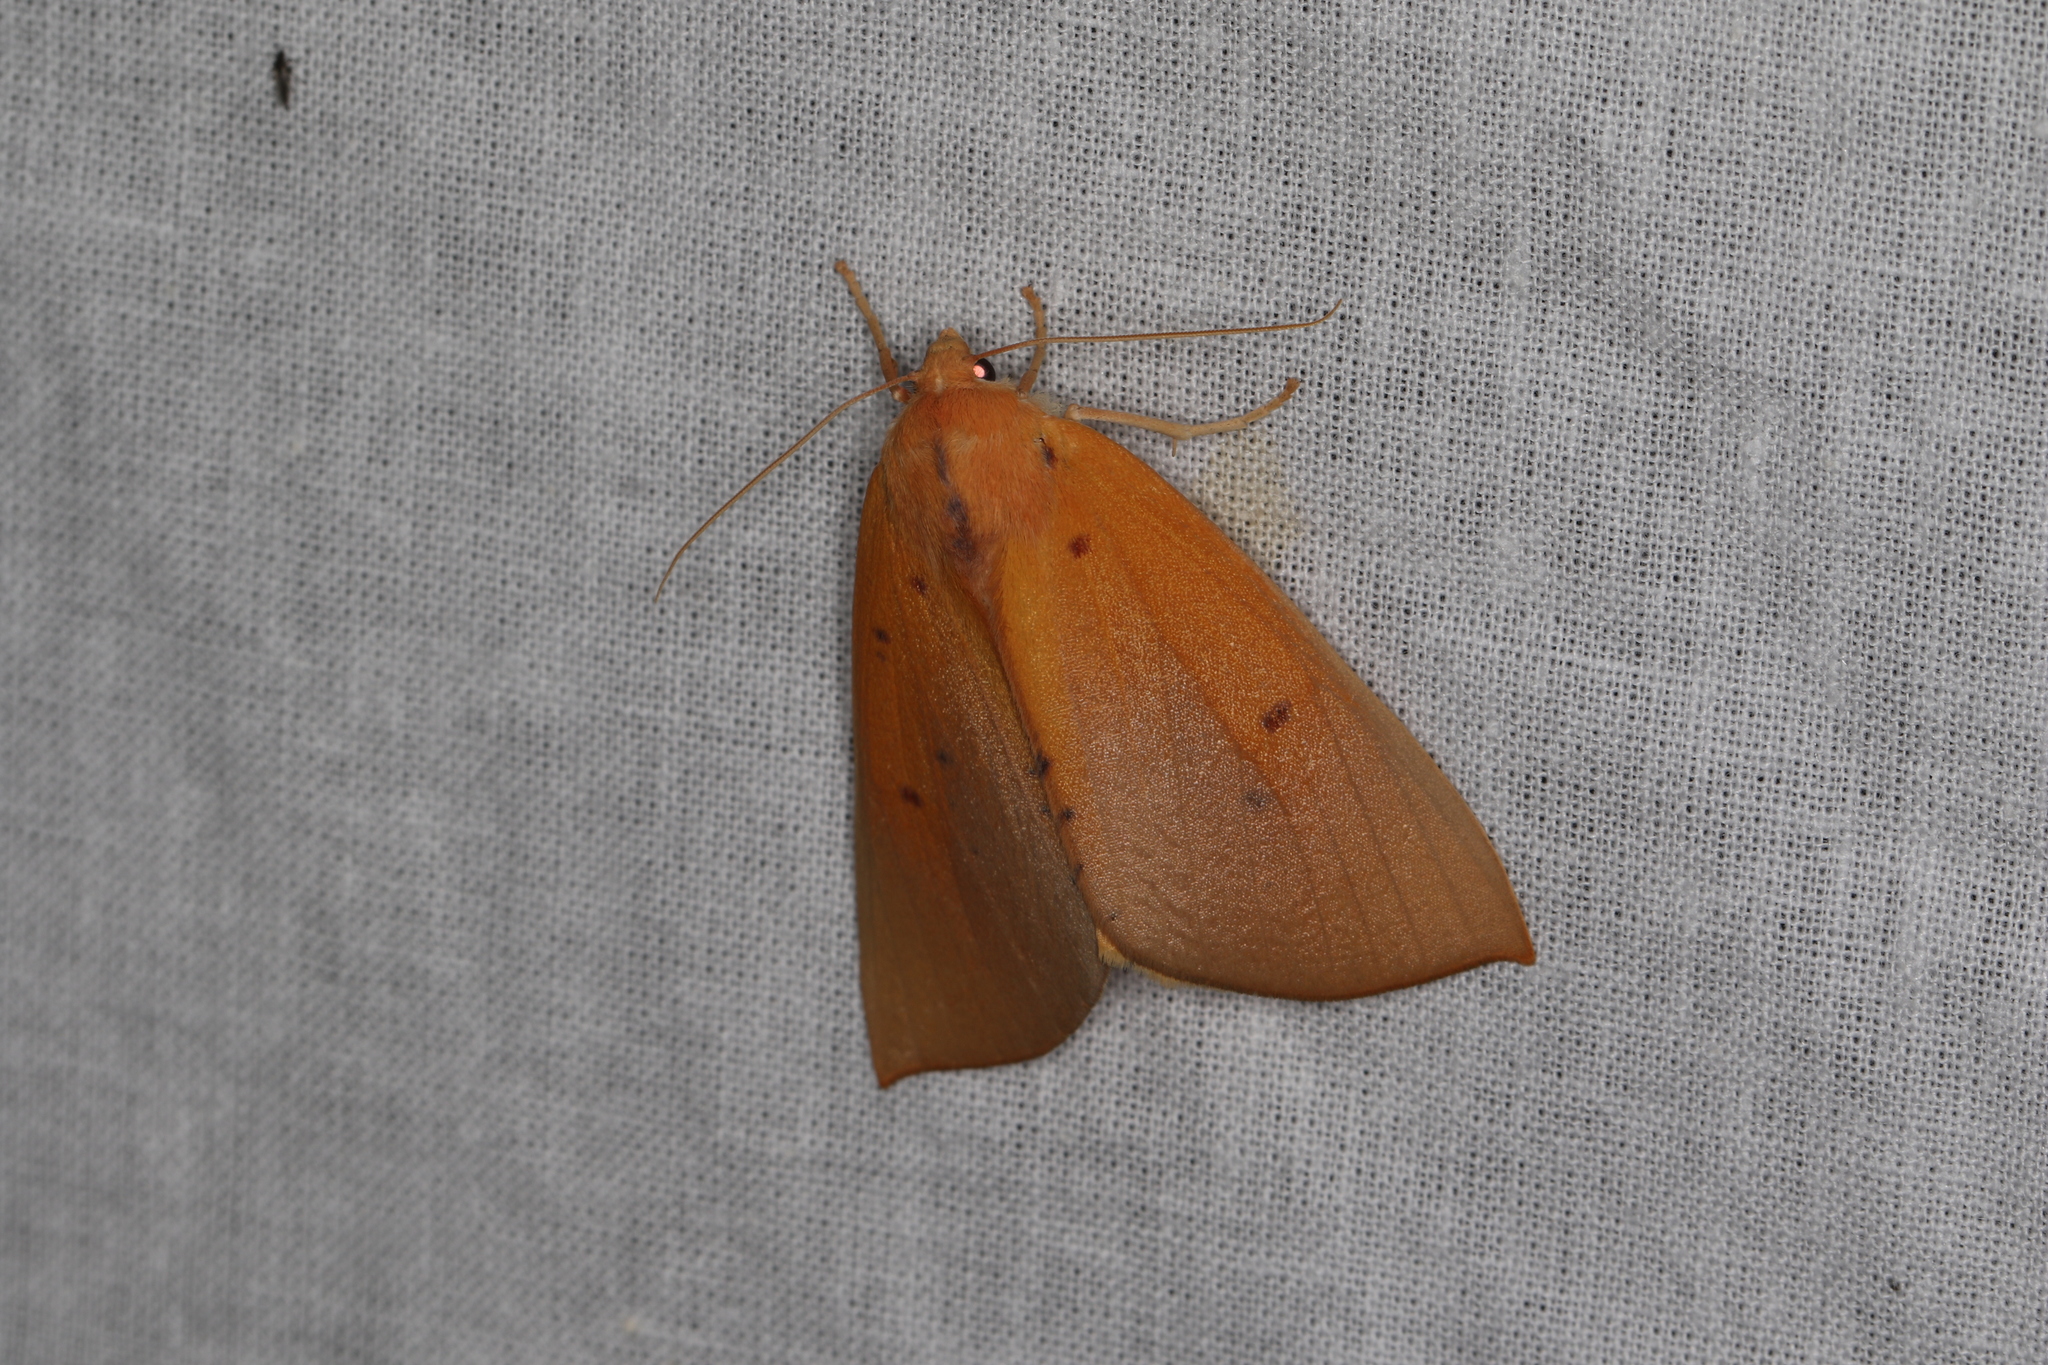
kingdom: Animalia
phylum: Arthropoda
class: Insecta
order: Lepidoptera
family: Geometridae
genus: Plesanemma
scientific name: Plesanemma fucata
